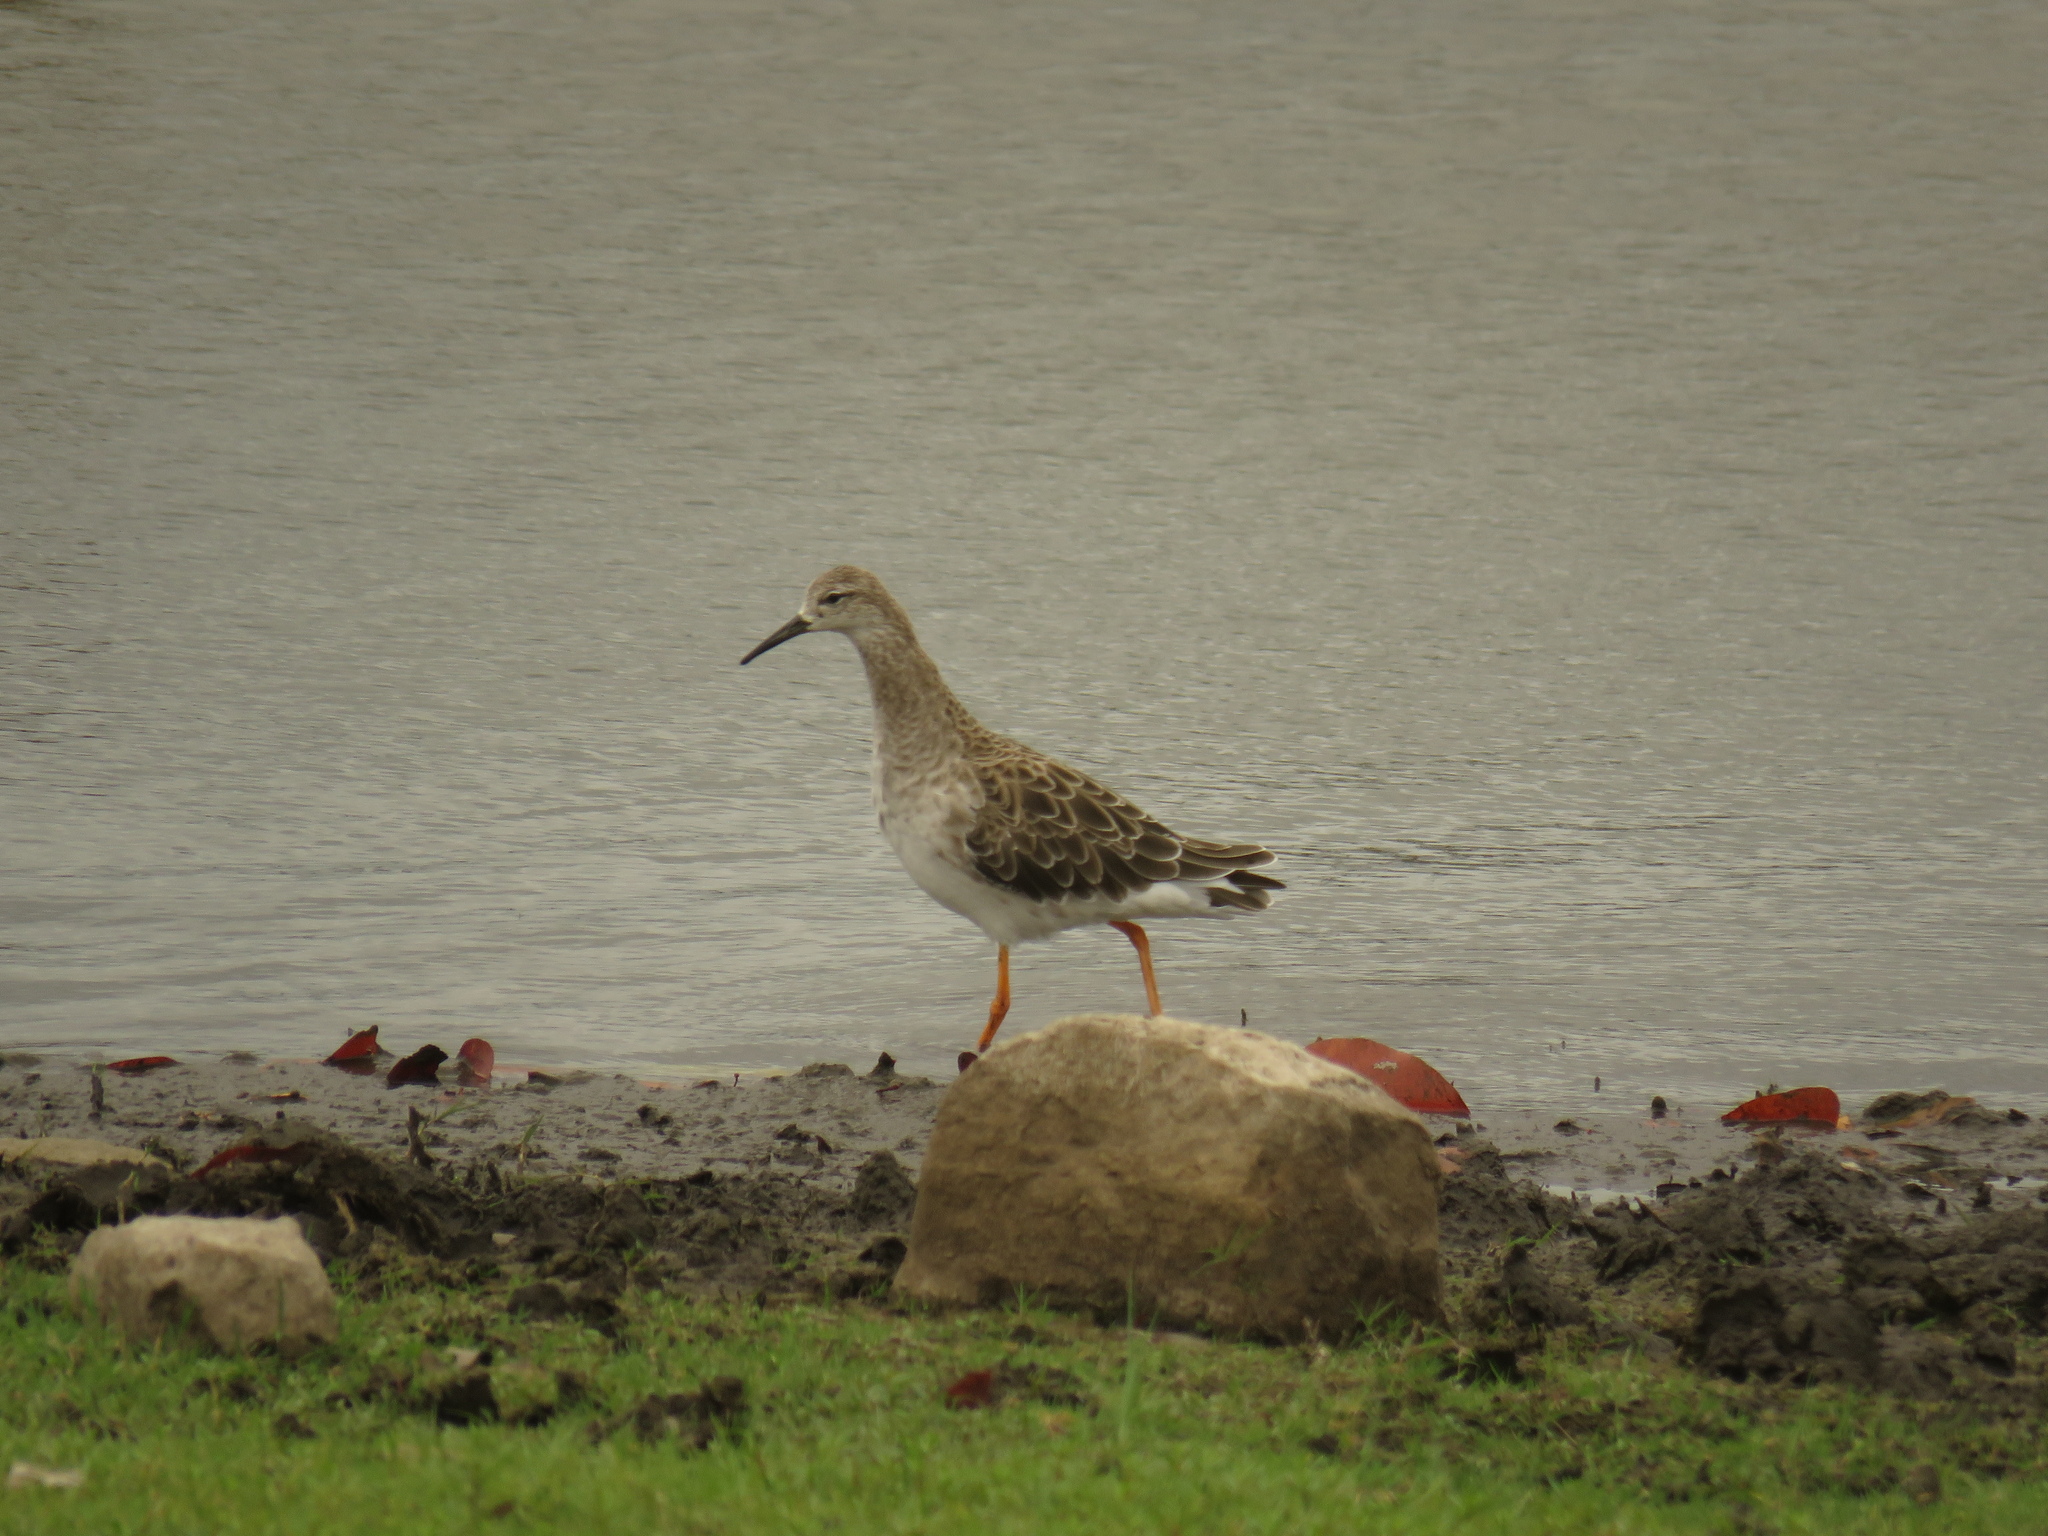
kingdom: Animalia
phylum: Chordata
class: Aves
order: Charadriiformes
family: Scolopacidae
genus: Calidris
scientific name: Calidris pugnax
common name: Ruff
